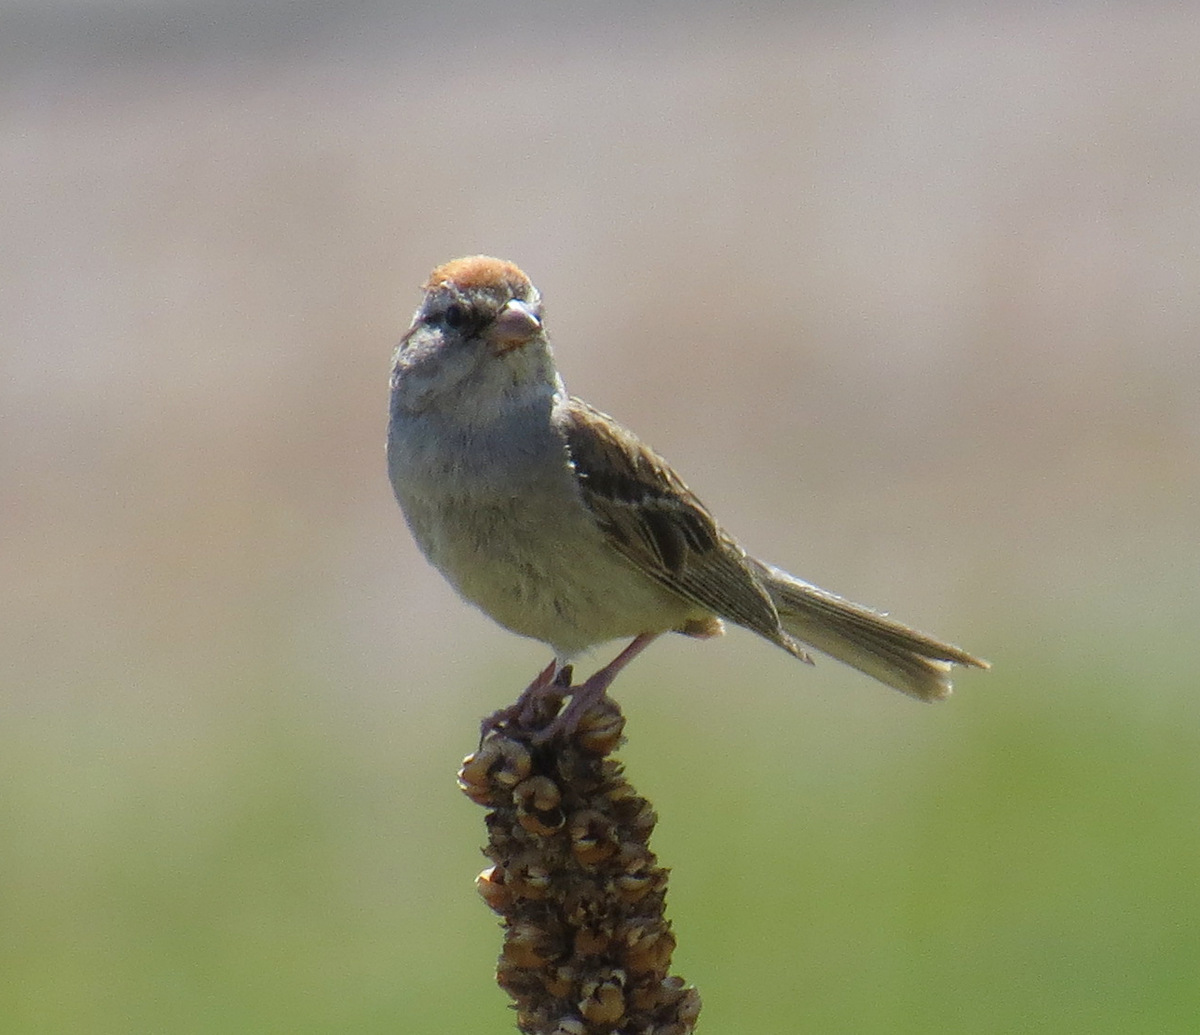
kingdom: Animalia
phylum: Chordata
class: Aves
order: Passeriformes
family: Passerellidae
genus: Spizella
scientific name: Spizella passerina
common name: Chipping sparrow
